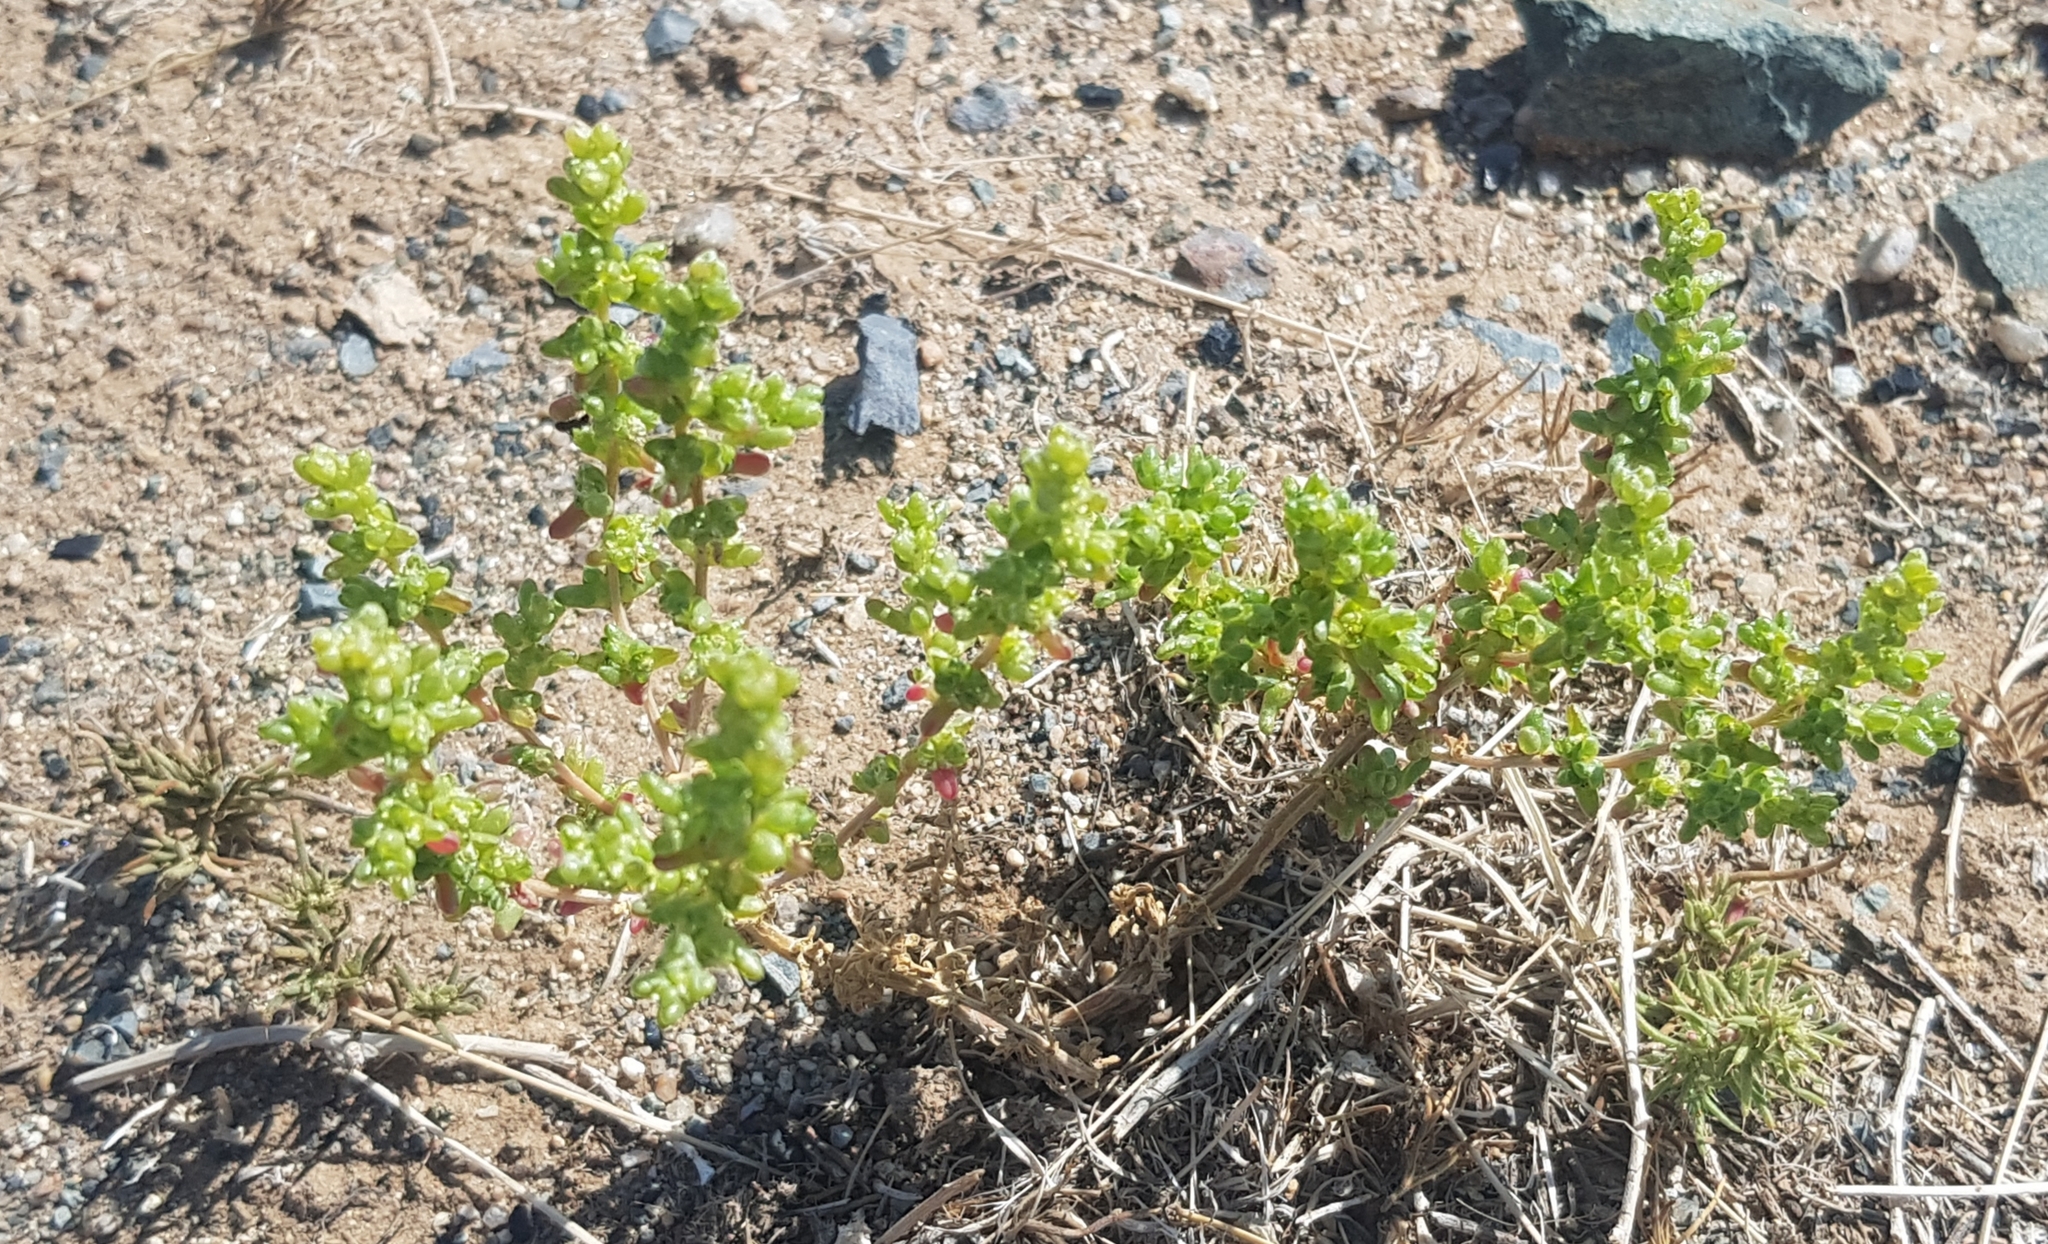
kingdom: Plantae
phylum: Tracheophyta
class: Magnoliopsida
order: Caryophyllales
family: Amaranthaceae
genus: Halogeton
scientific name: Halogeton arachnoides
